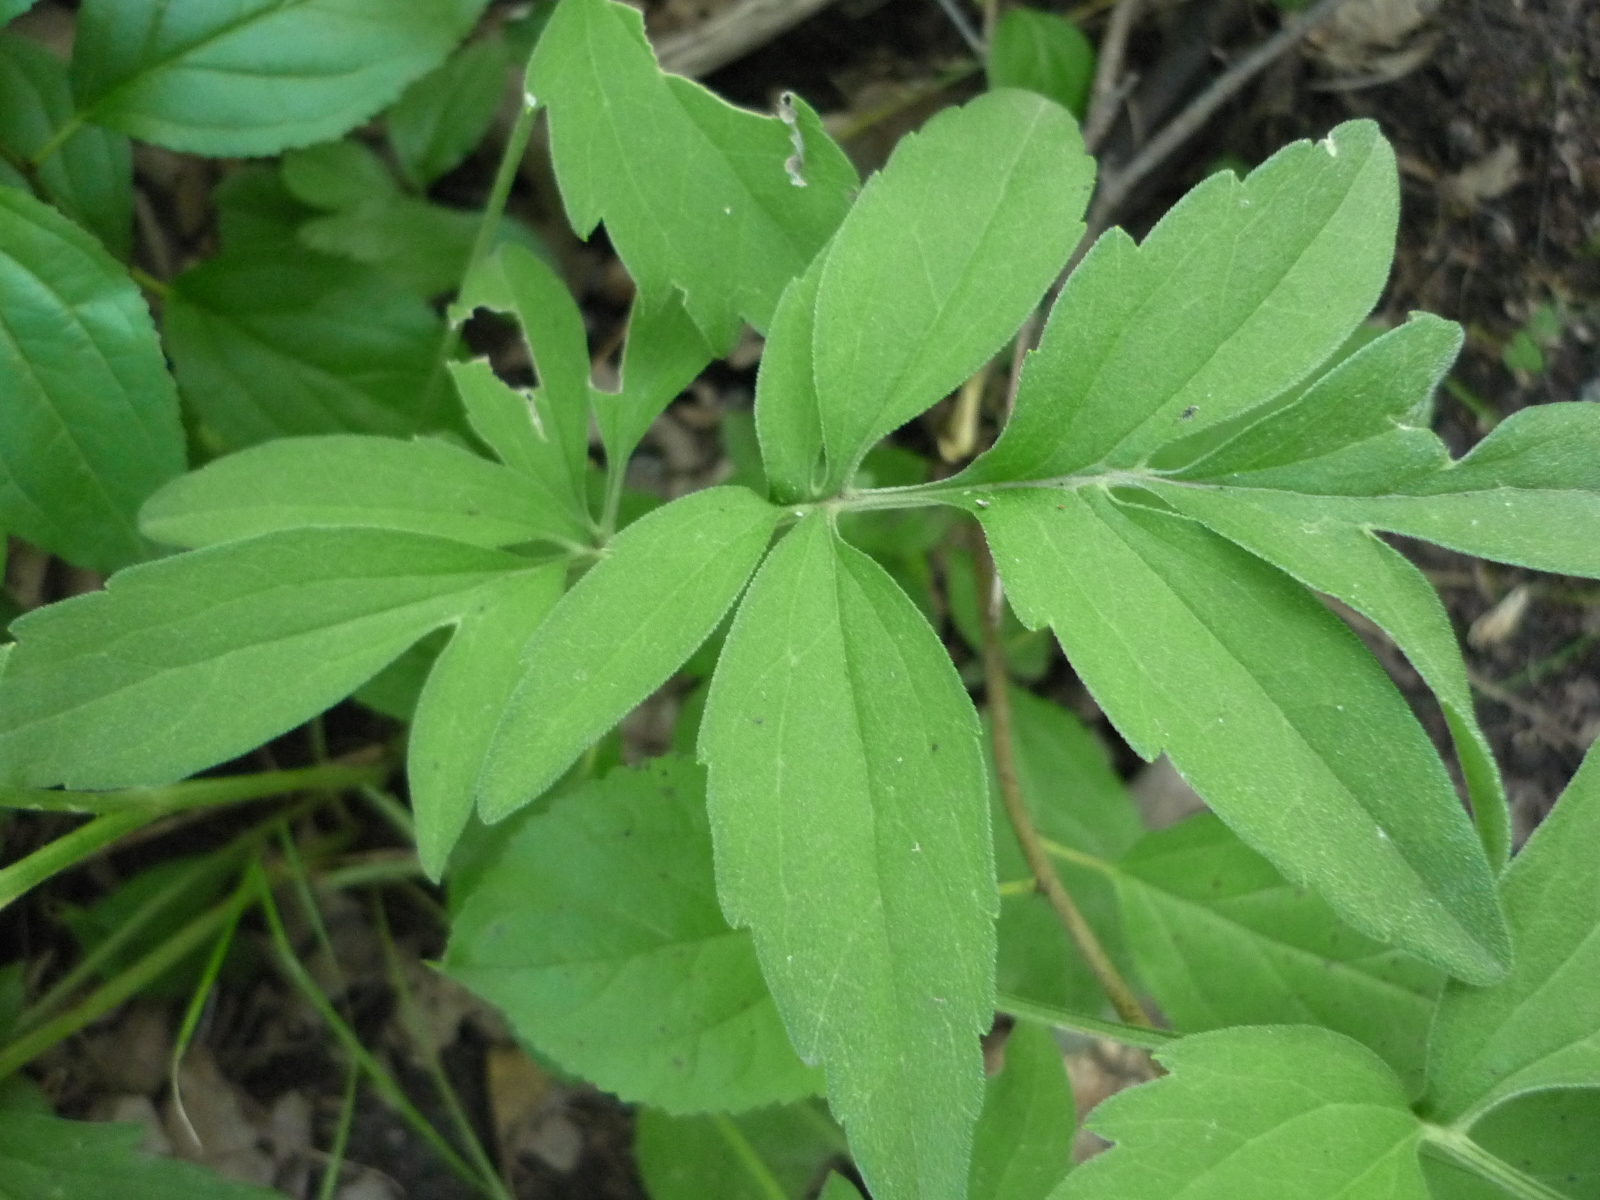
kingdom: Plantae
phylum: Tracheophyta
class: Magnoliopsida
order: Asterales
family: Asteraceae
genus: Ratibida
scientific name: Ratibida pinnata
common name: Drooping prairie-coneflower
